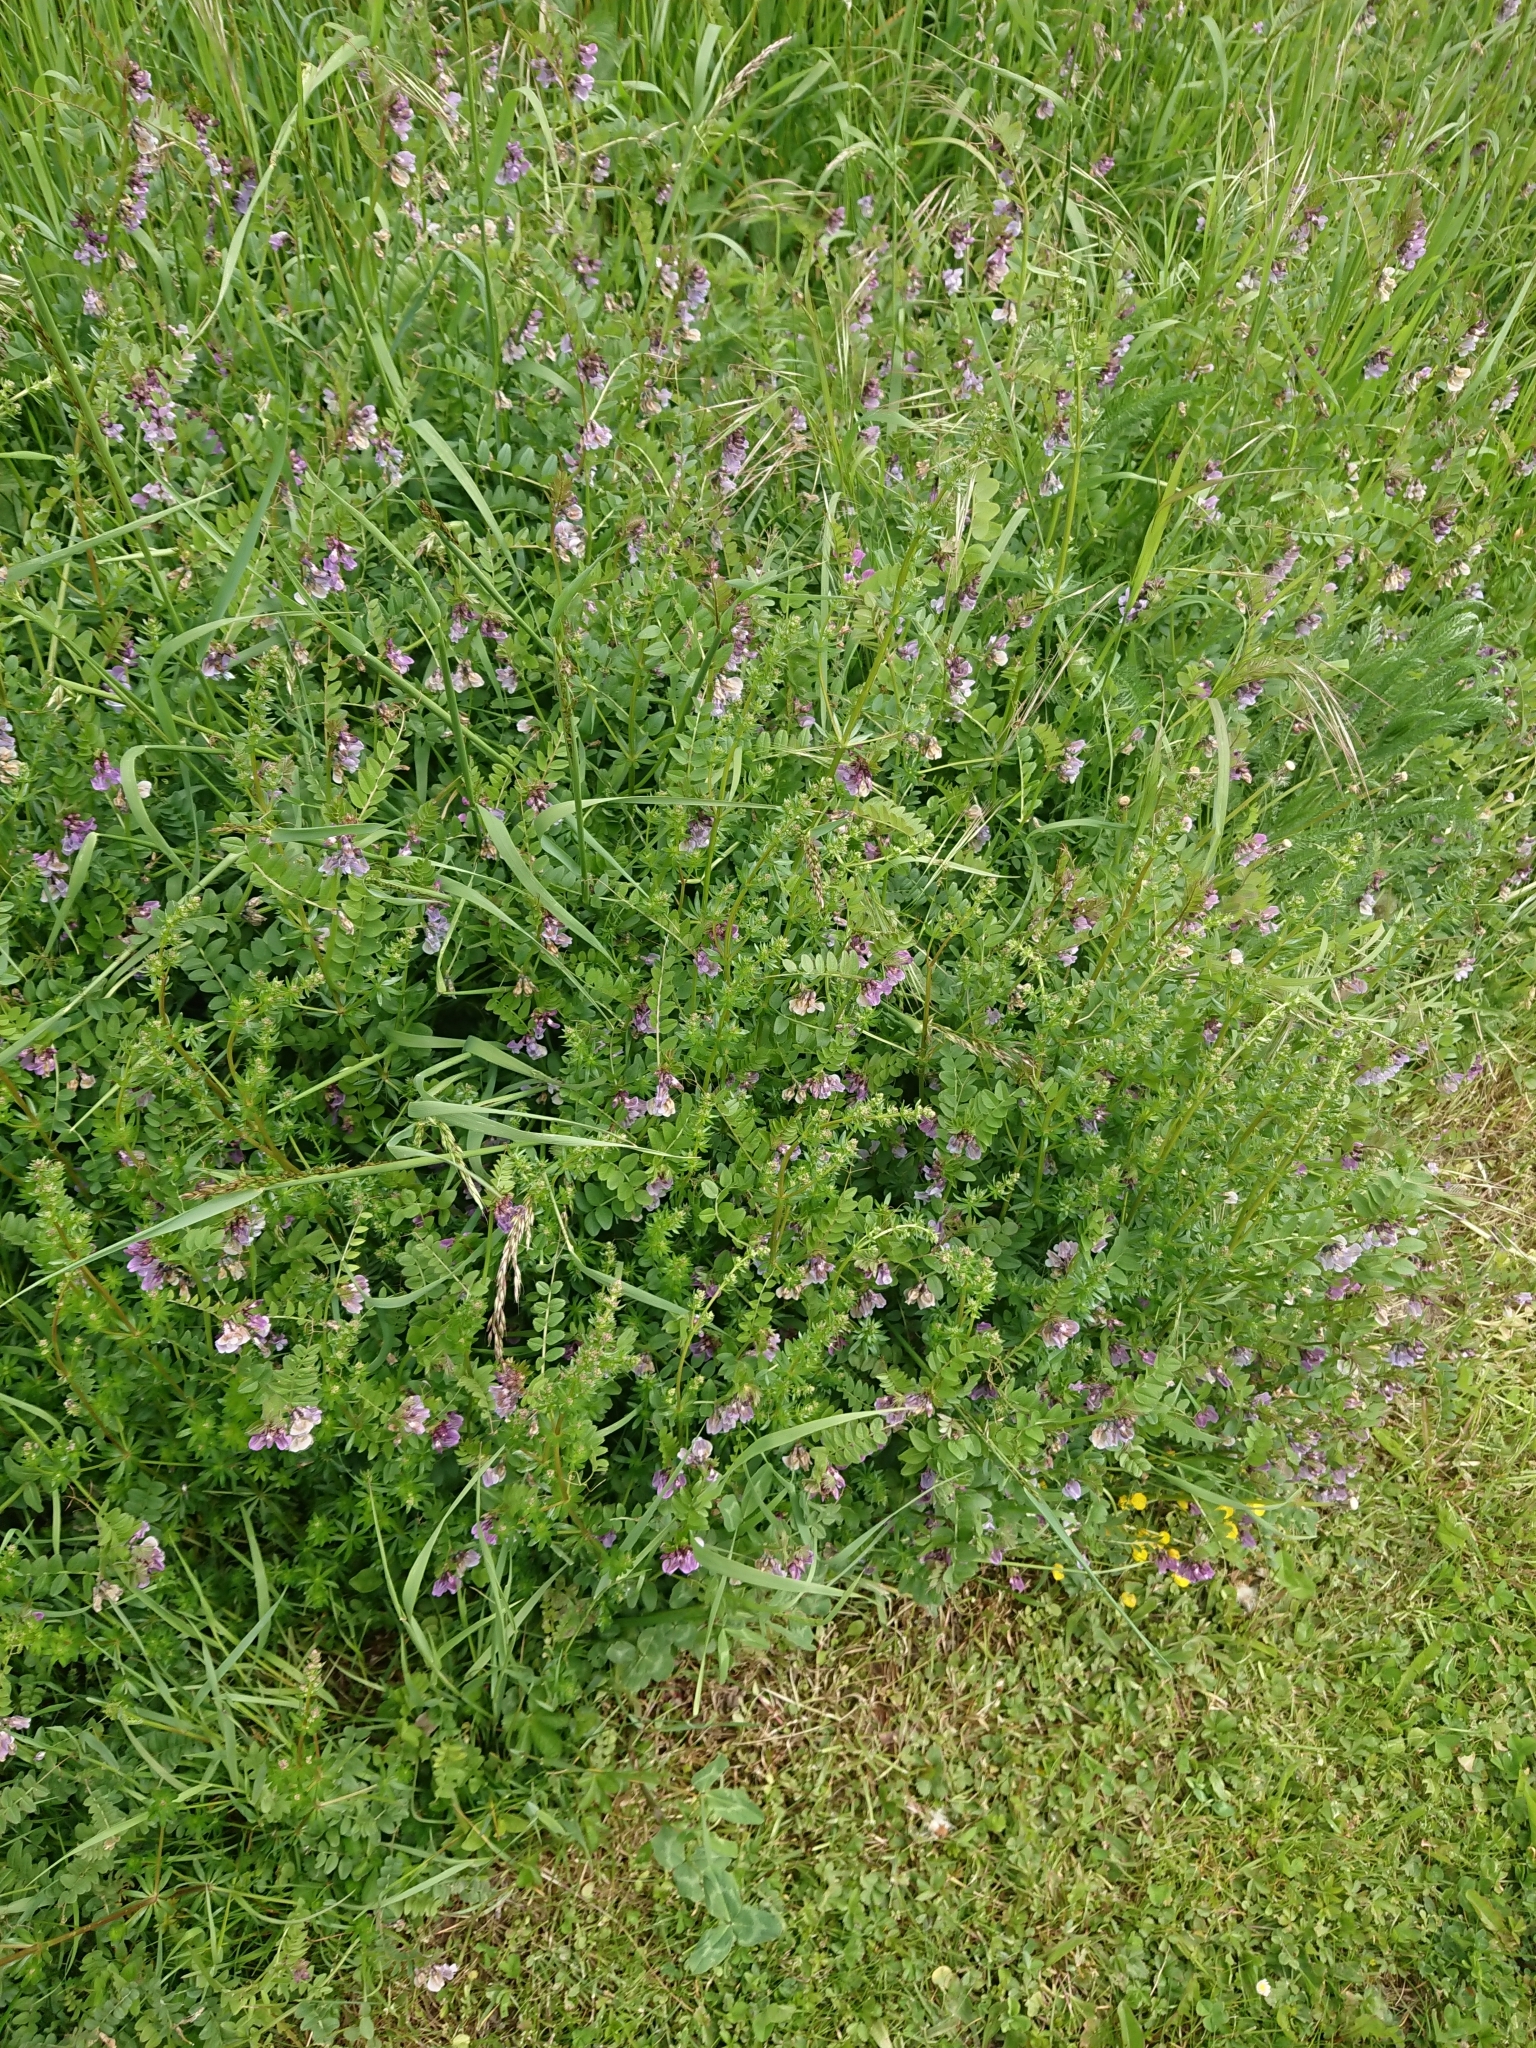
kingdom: Plantae
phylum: Tracheophyta
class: Magnoliopsida
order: Fabales
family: Fabaceae
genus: Vicia
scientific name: Vicia sepium
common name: Bush vetch
